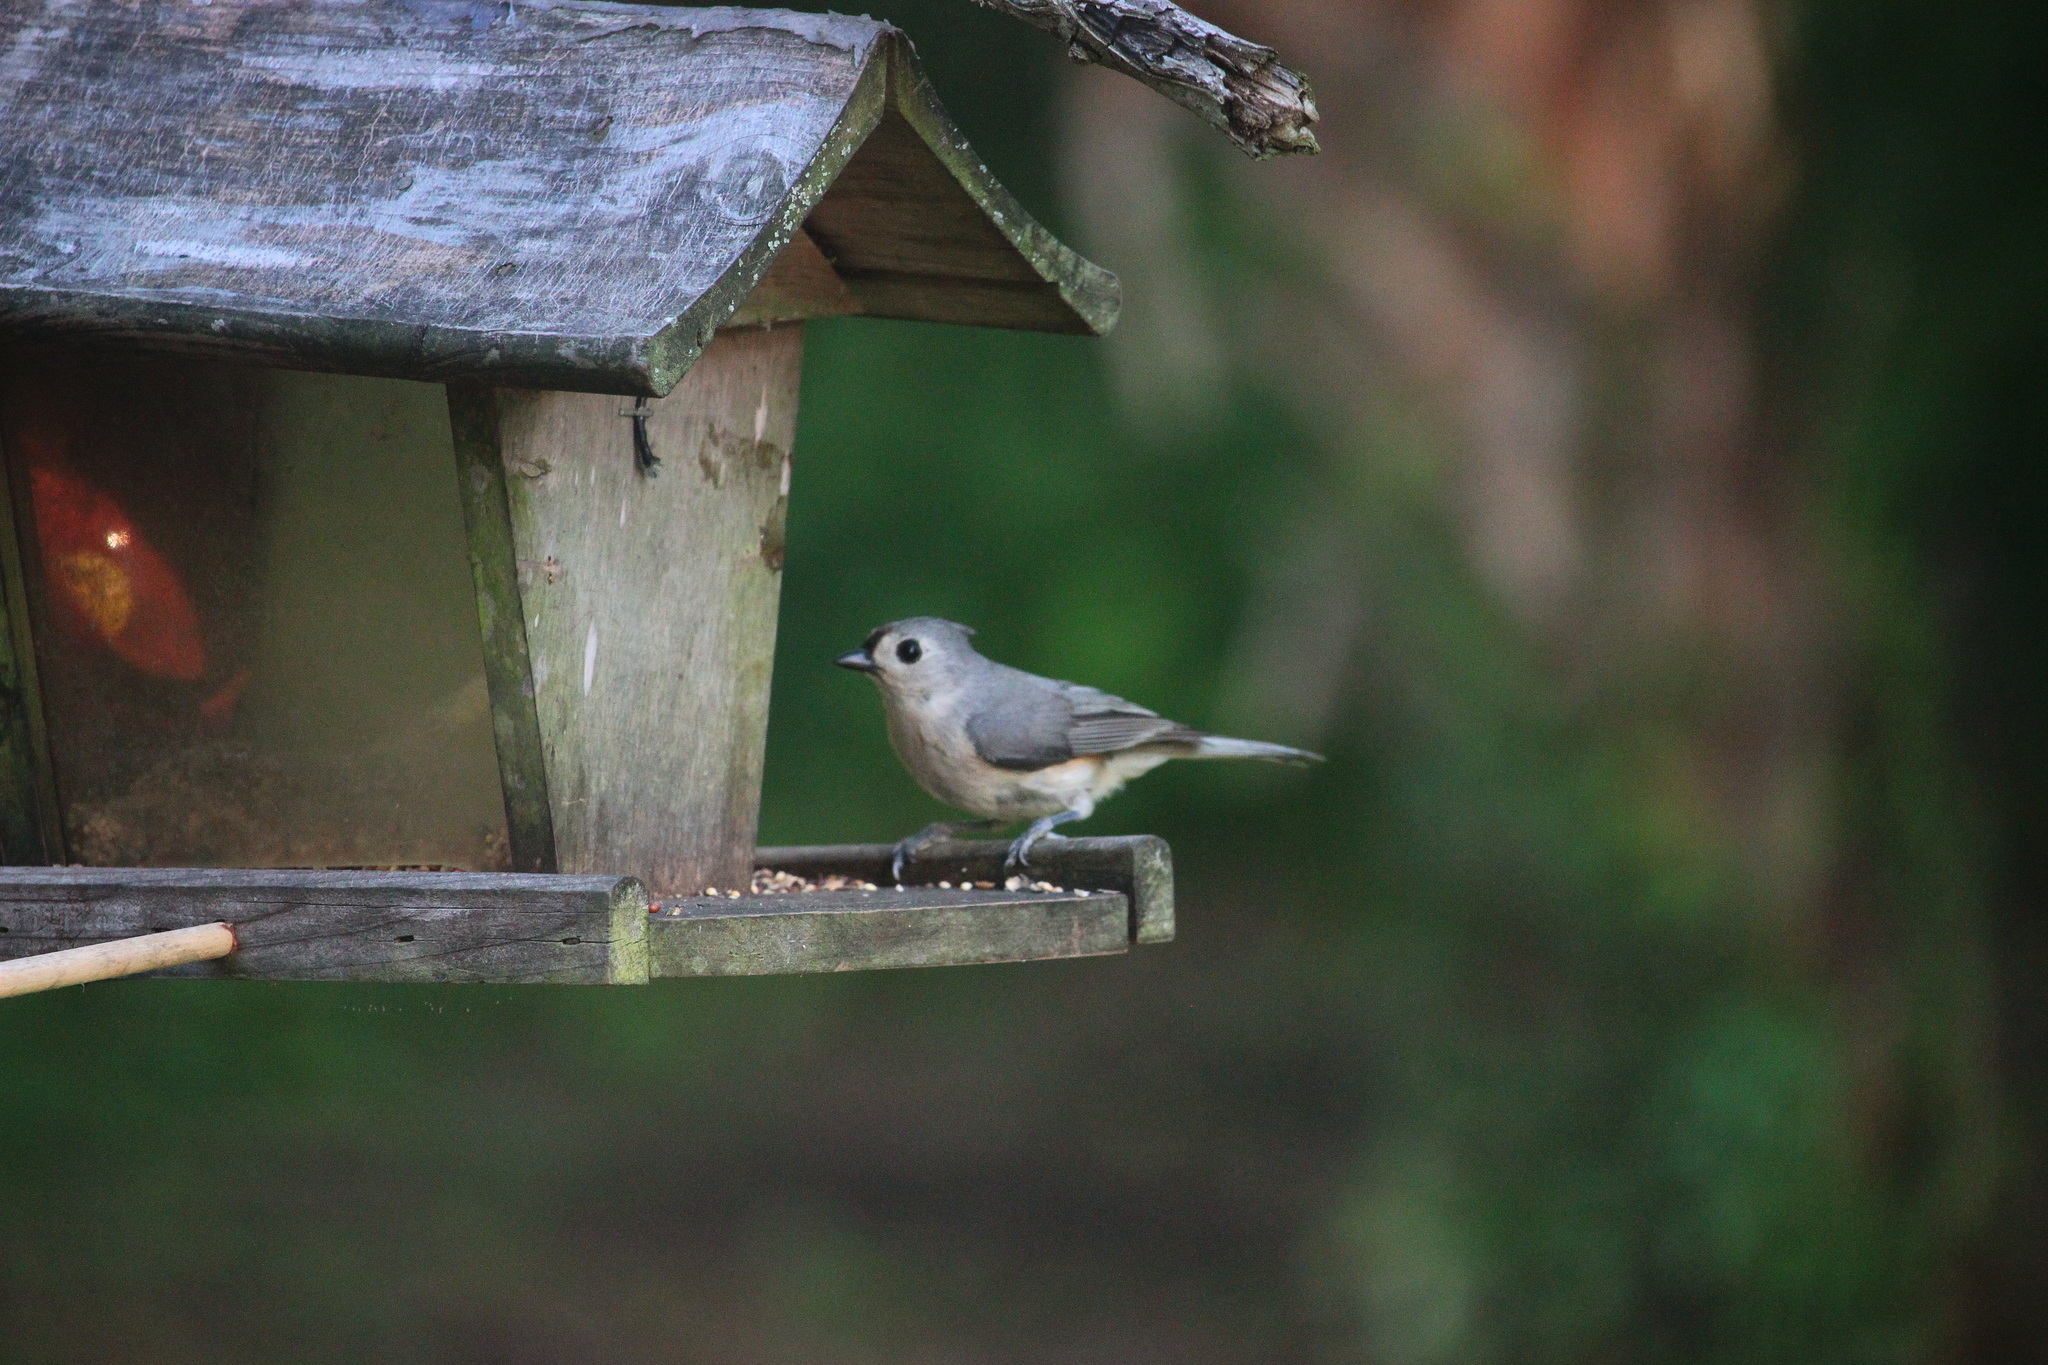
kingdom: Animalia
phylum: Chordata
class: Aves
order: Passeriformes
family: Paridae
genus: Baeolophus
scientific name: Baeolophus bicolor
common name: Tufted titmouse
